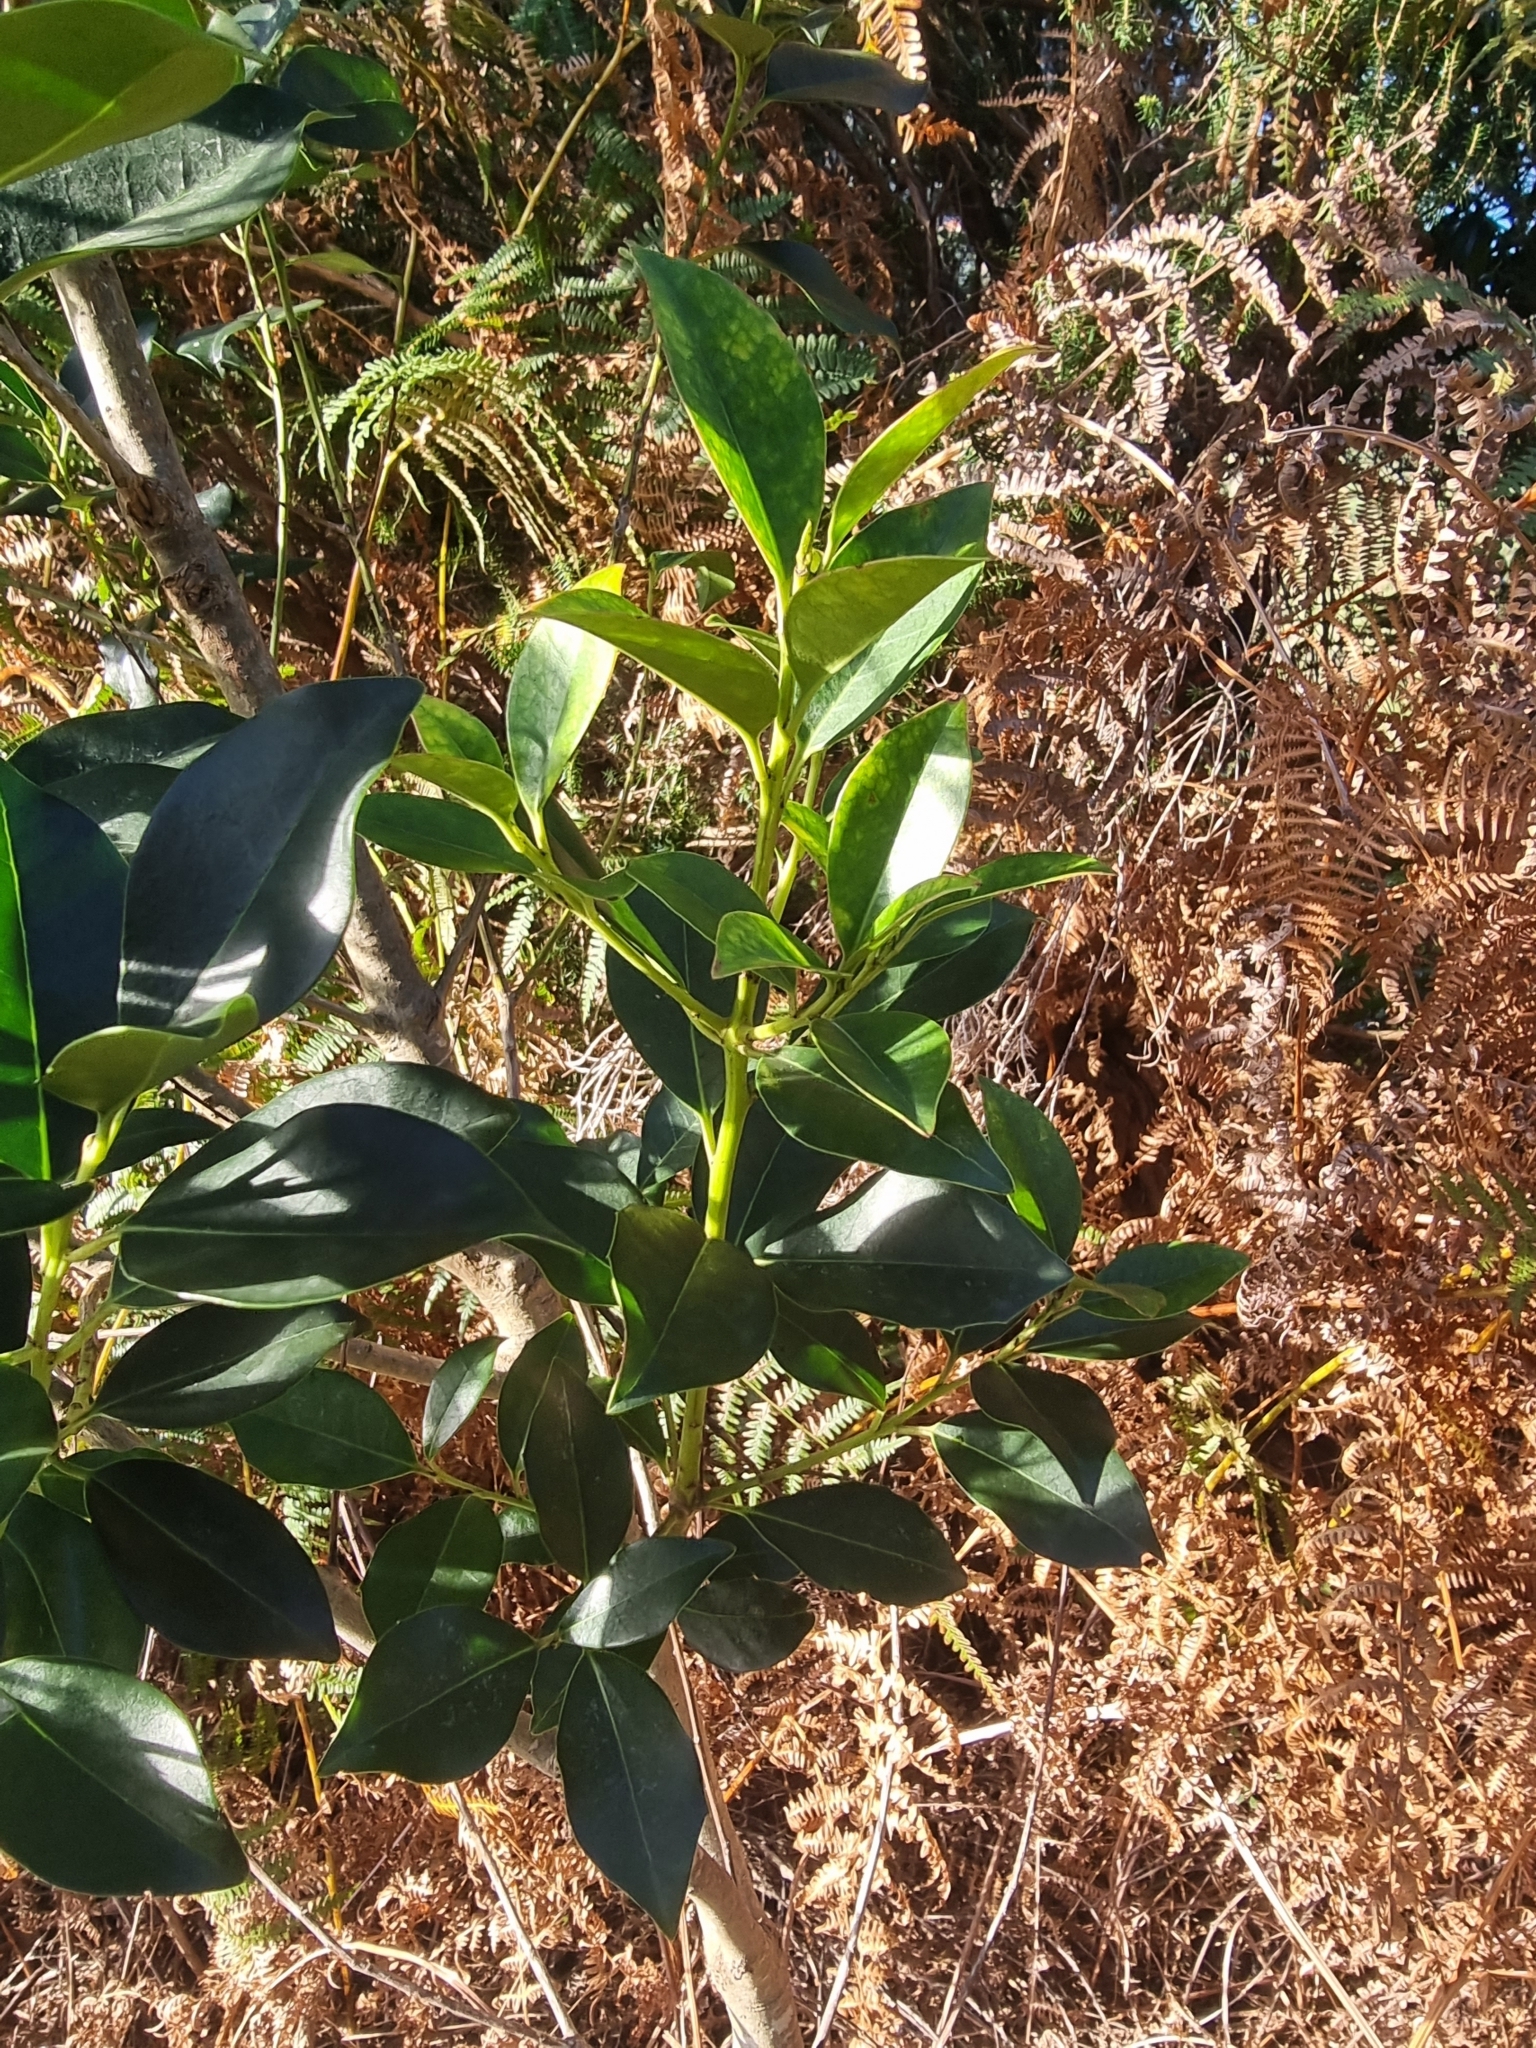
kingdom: Plantae
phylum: Tracheophyta
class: Magnoliopsida
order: Aquifoliales
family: Aquifoliaceae
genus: Ilex
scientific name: Ilex canariensis
